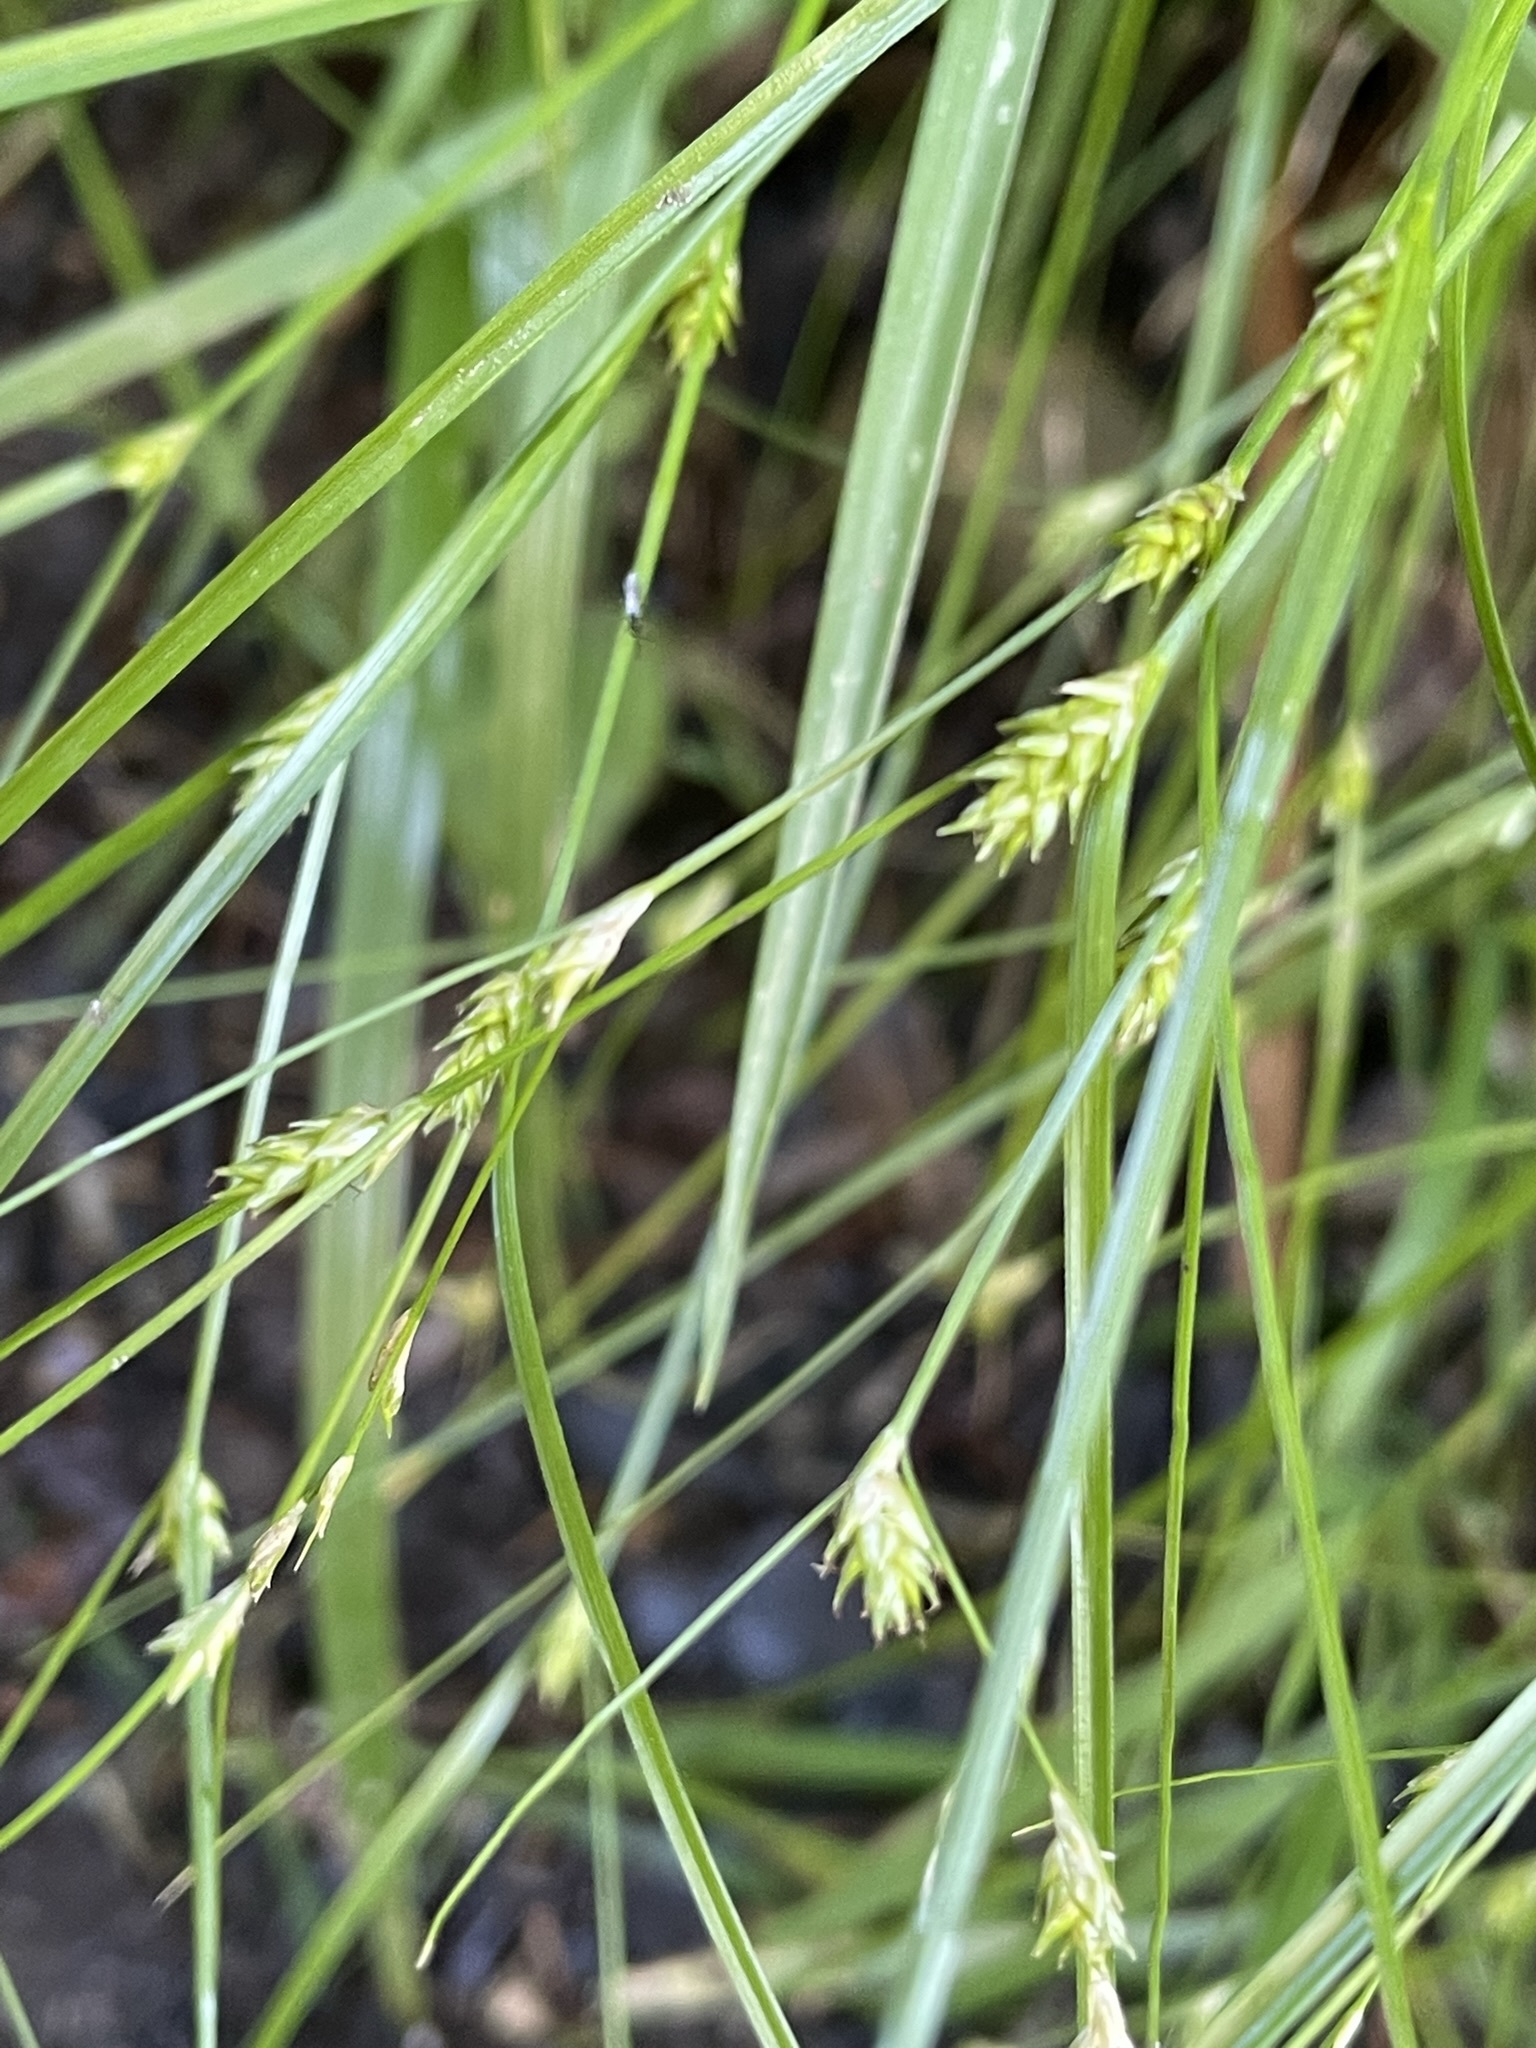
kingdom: Plantae
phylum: Tracheophyta
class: Liliopsida
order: Poales
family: Cyperaceae
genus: Carex
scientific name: Carex remota
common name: Remote sedge
